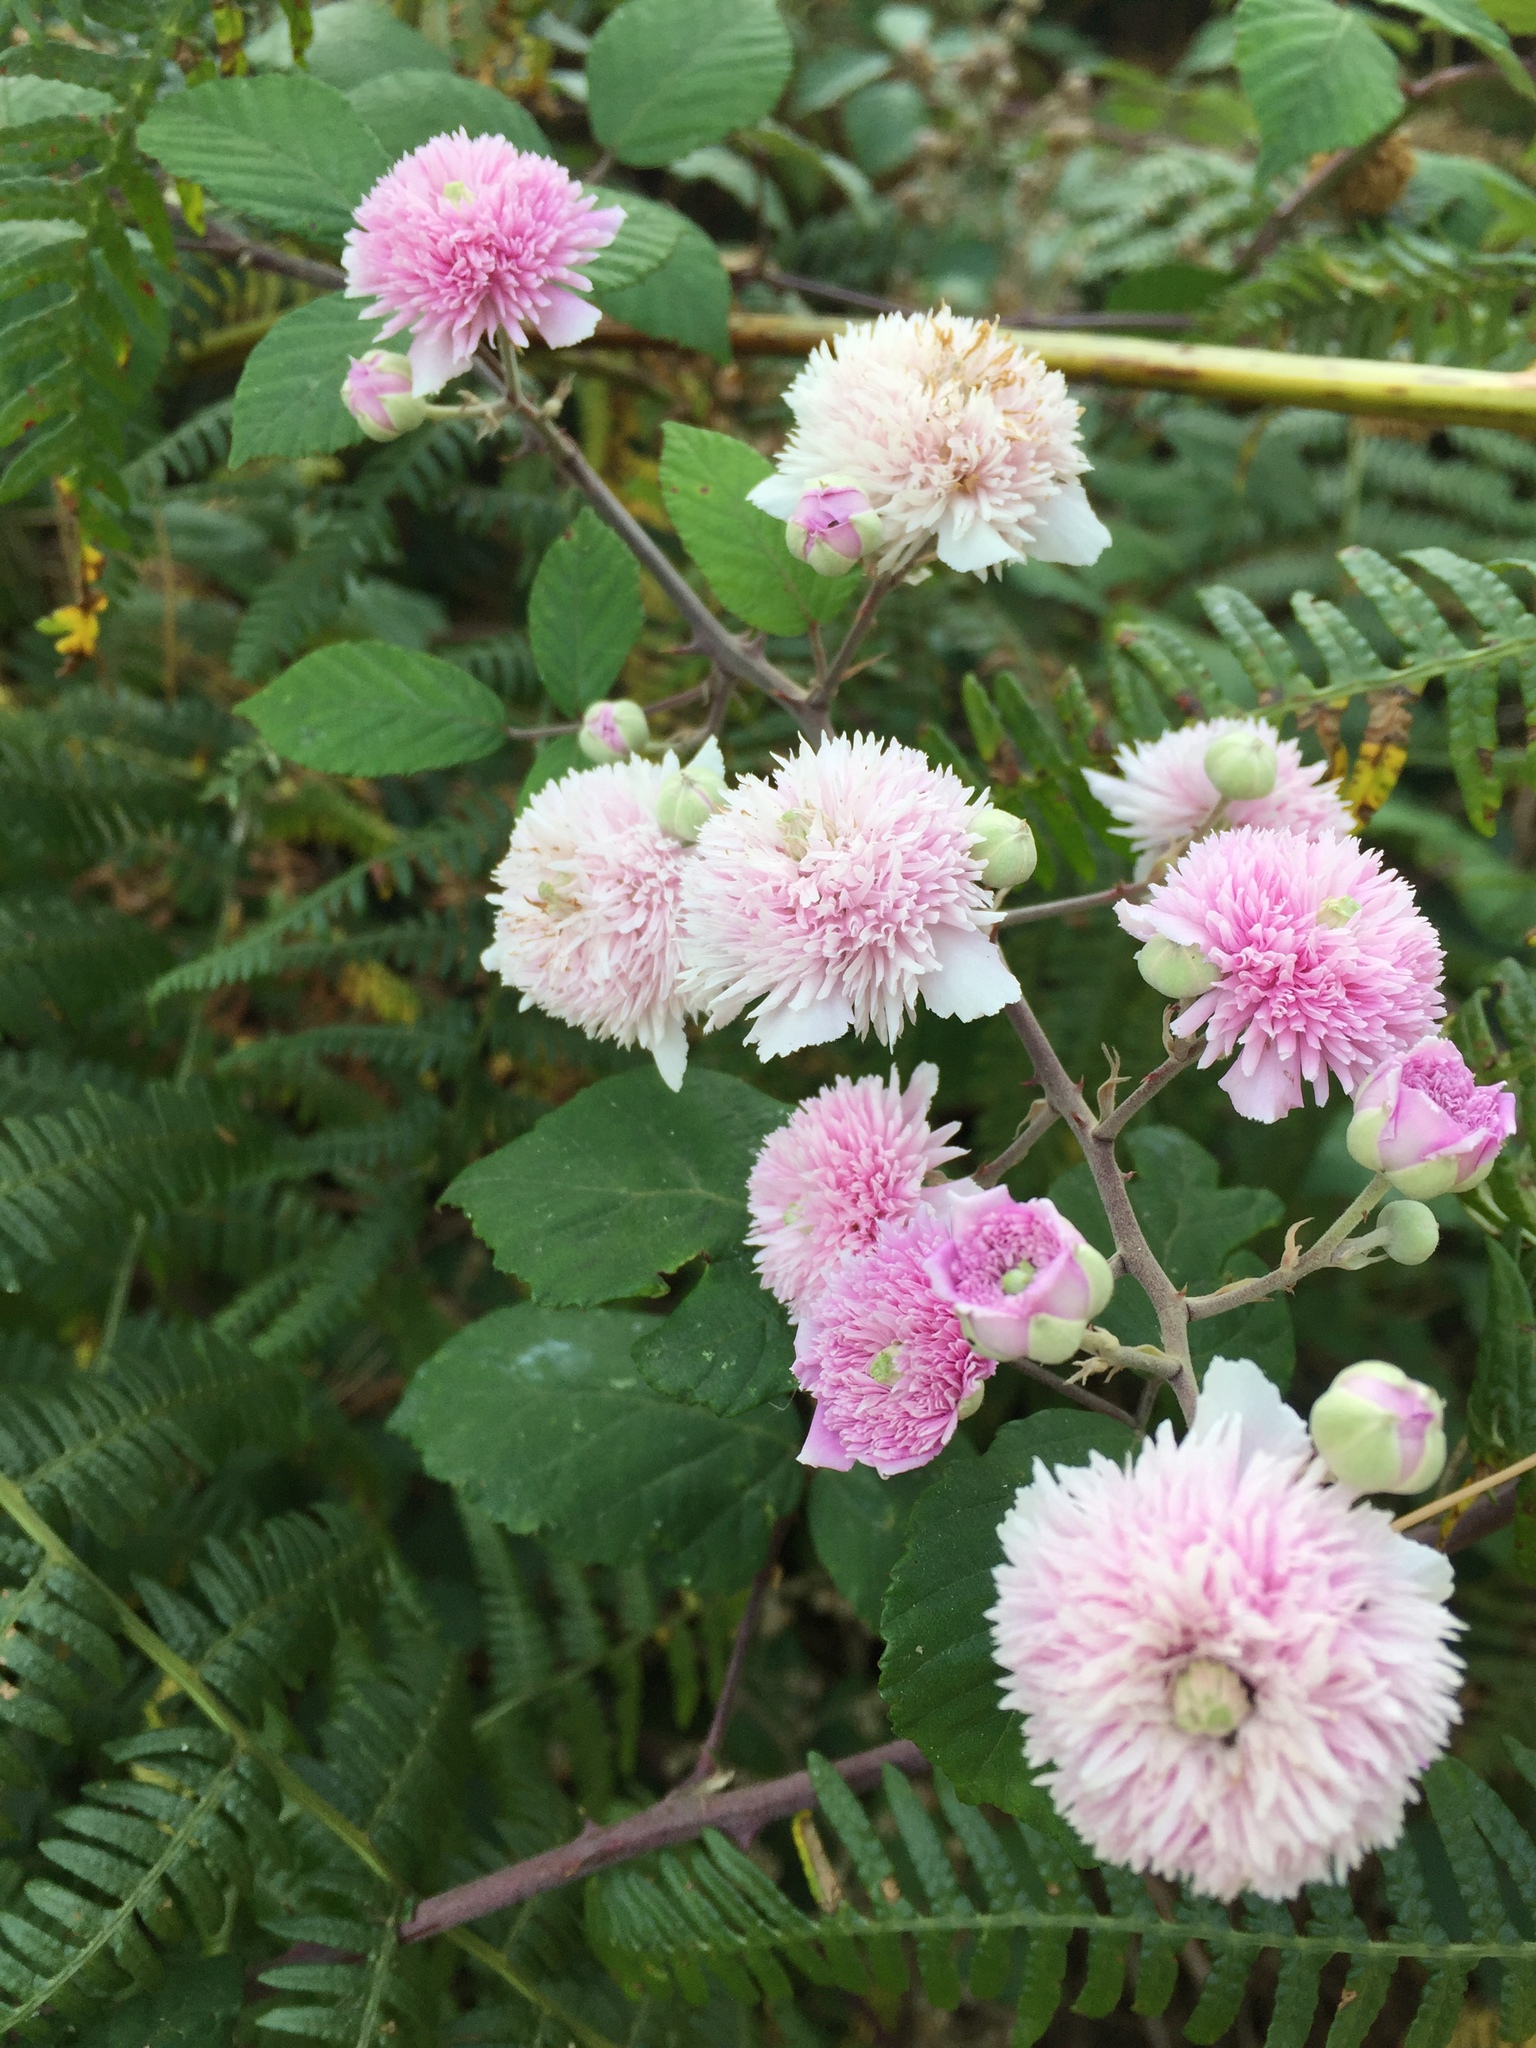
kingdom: Plantae
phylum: Tracheophyta
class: Magnoliopsida
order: Rosales
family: Rosaceae
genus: Rubus
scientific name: Rubus ulmifolius
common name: Elmleaf blackberry
